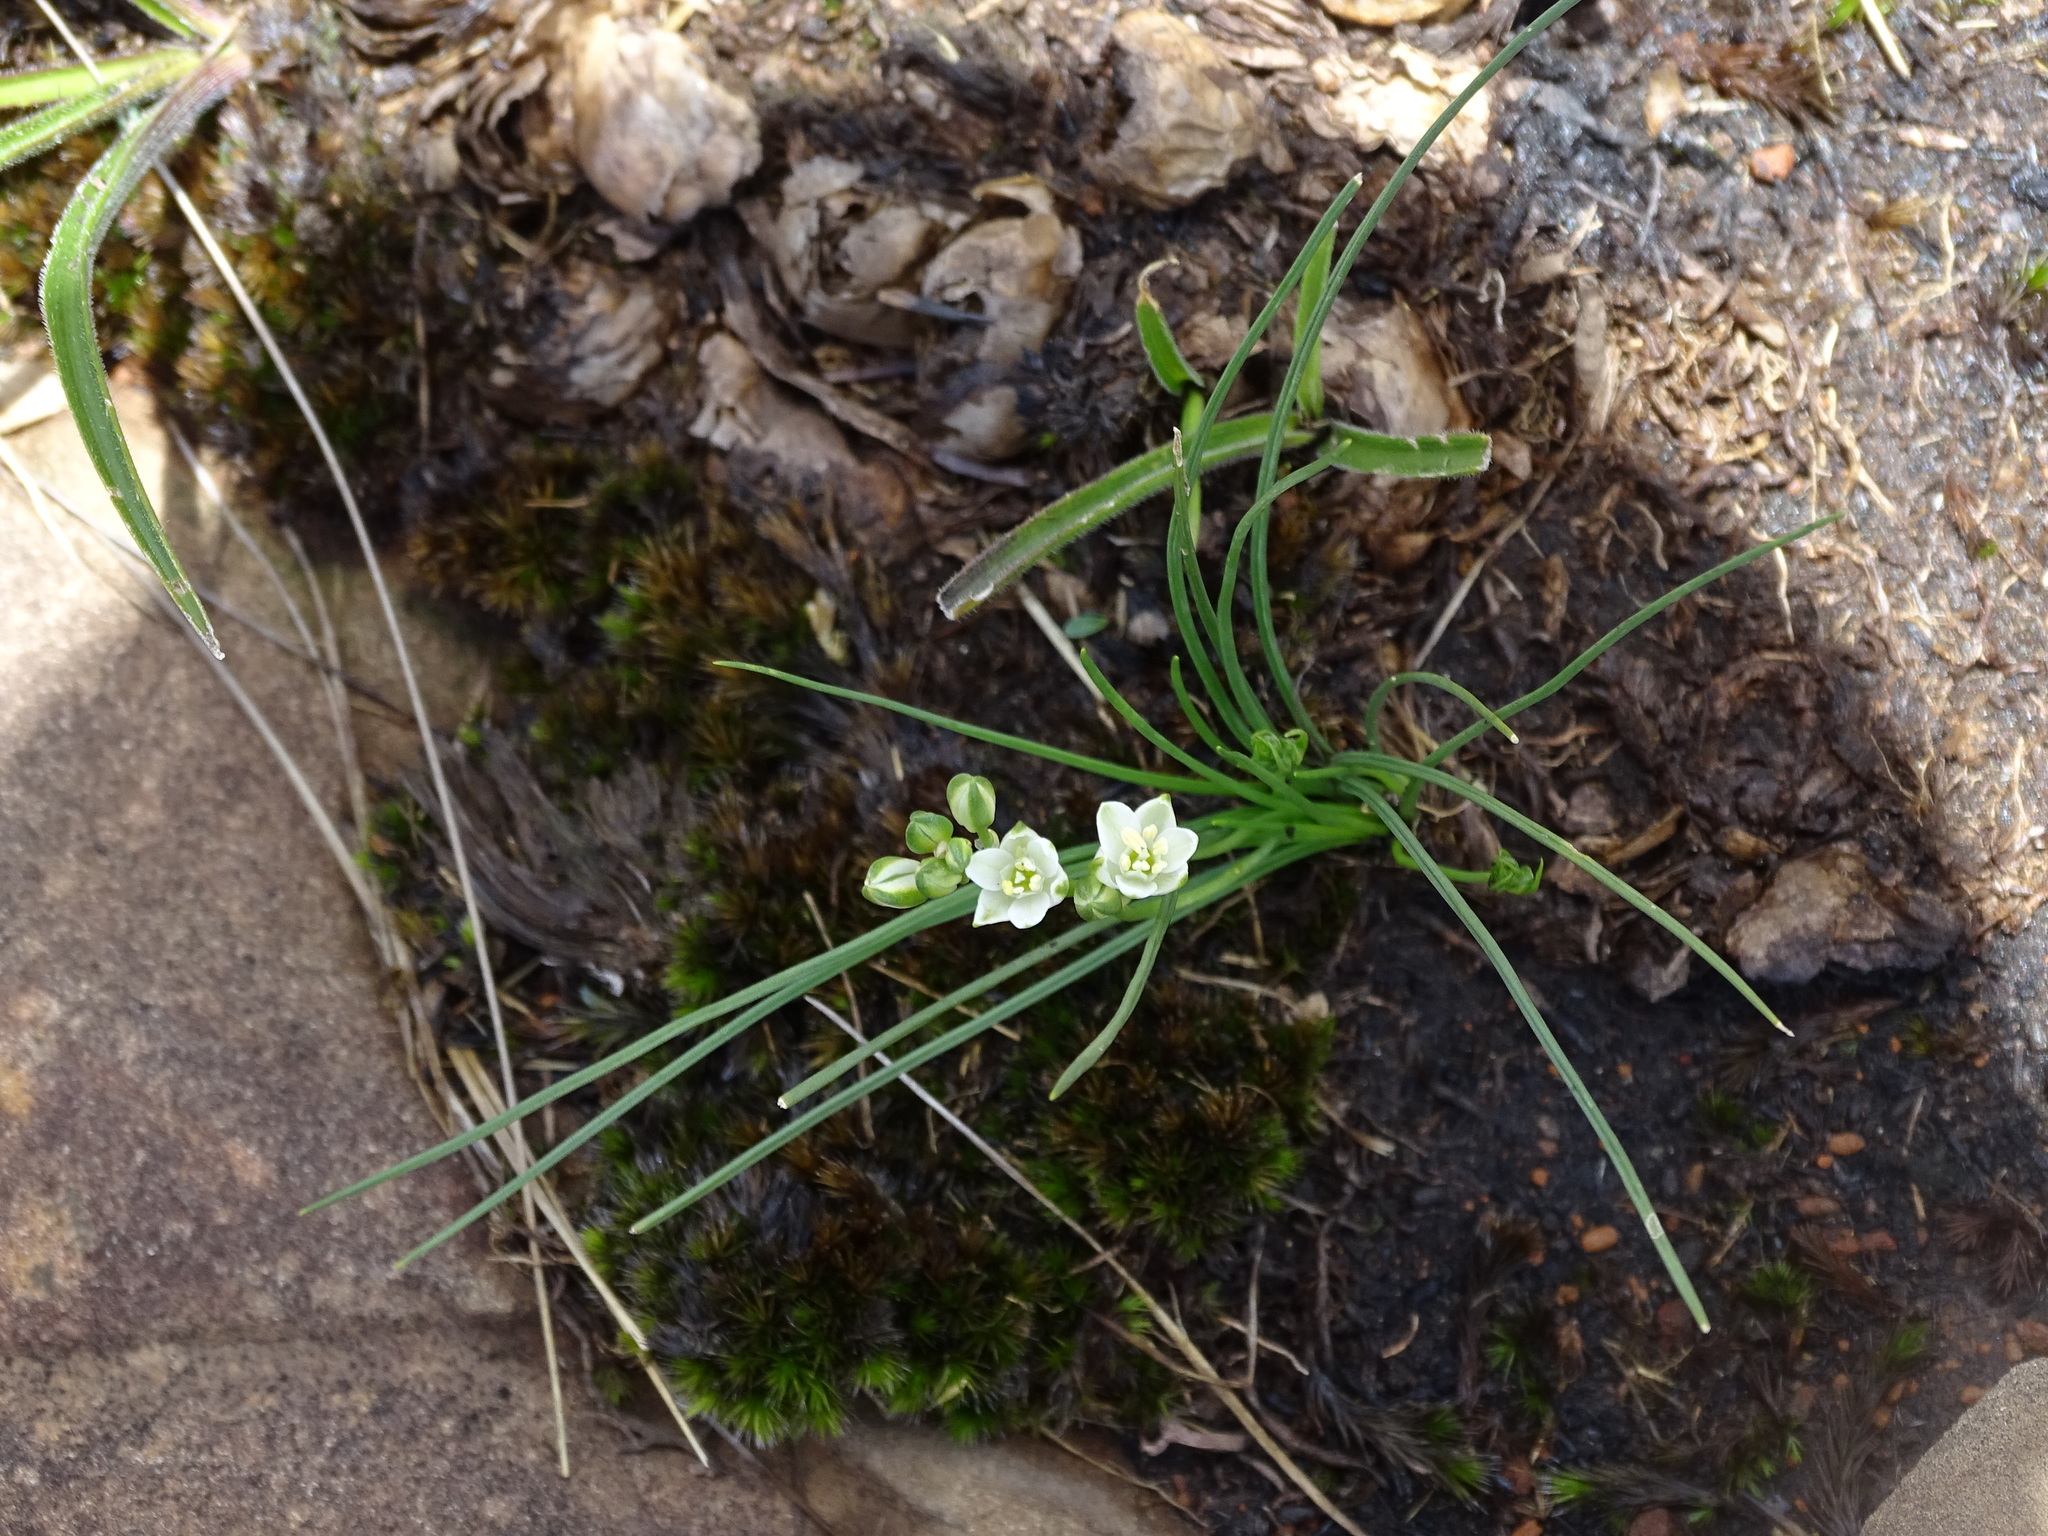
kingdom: Plantae
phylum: Tracheophyta
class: Liliopsida
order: Asparagales
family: Asparagaceae
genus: Ornithogalum
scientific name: Ornithogalum juncifolium
